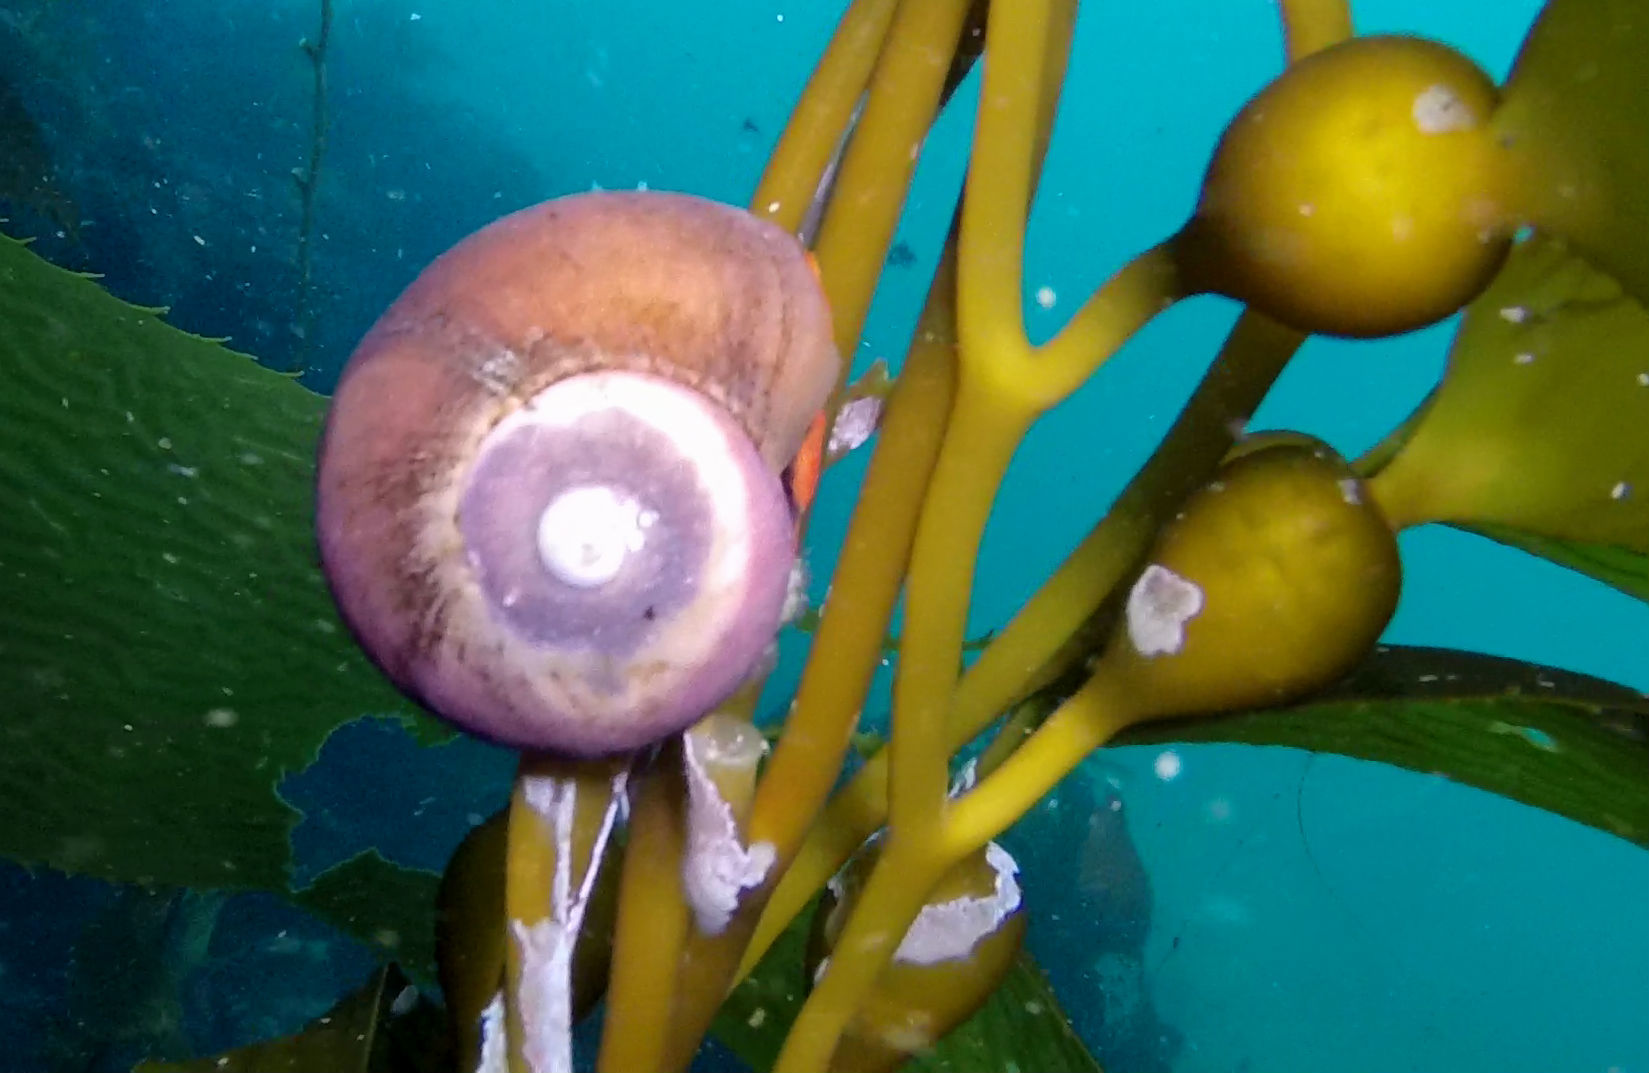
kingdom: Animalia
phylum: Mollusca
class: Gastropoda
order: Trochida
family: Tegulidae
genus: Norrisia
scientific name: Norrisia norrisii
